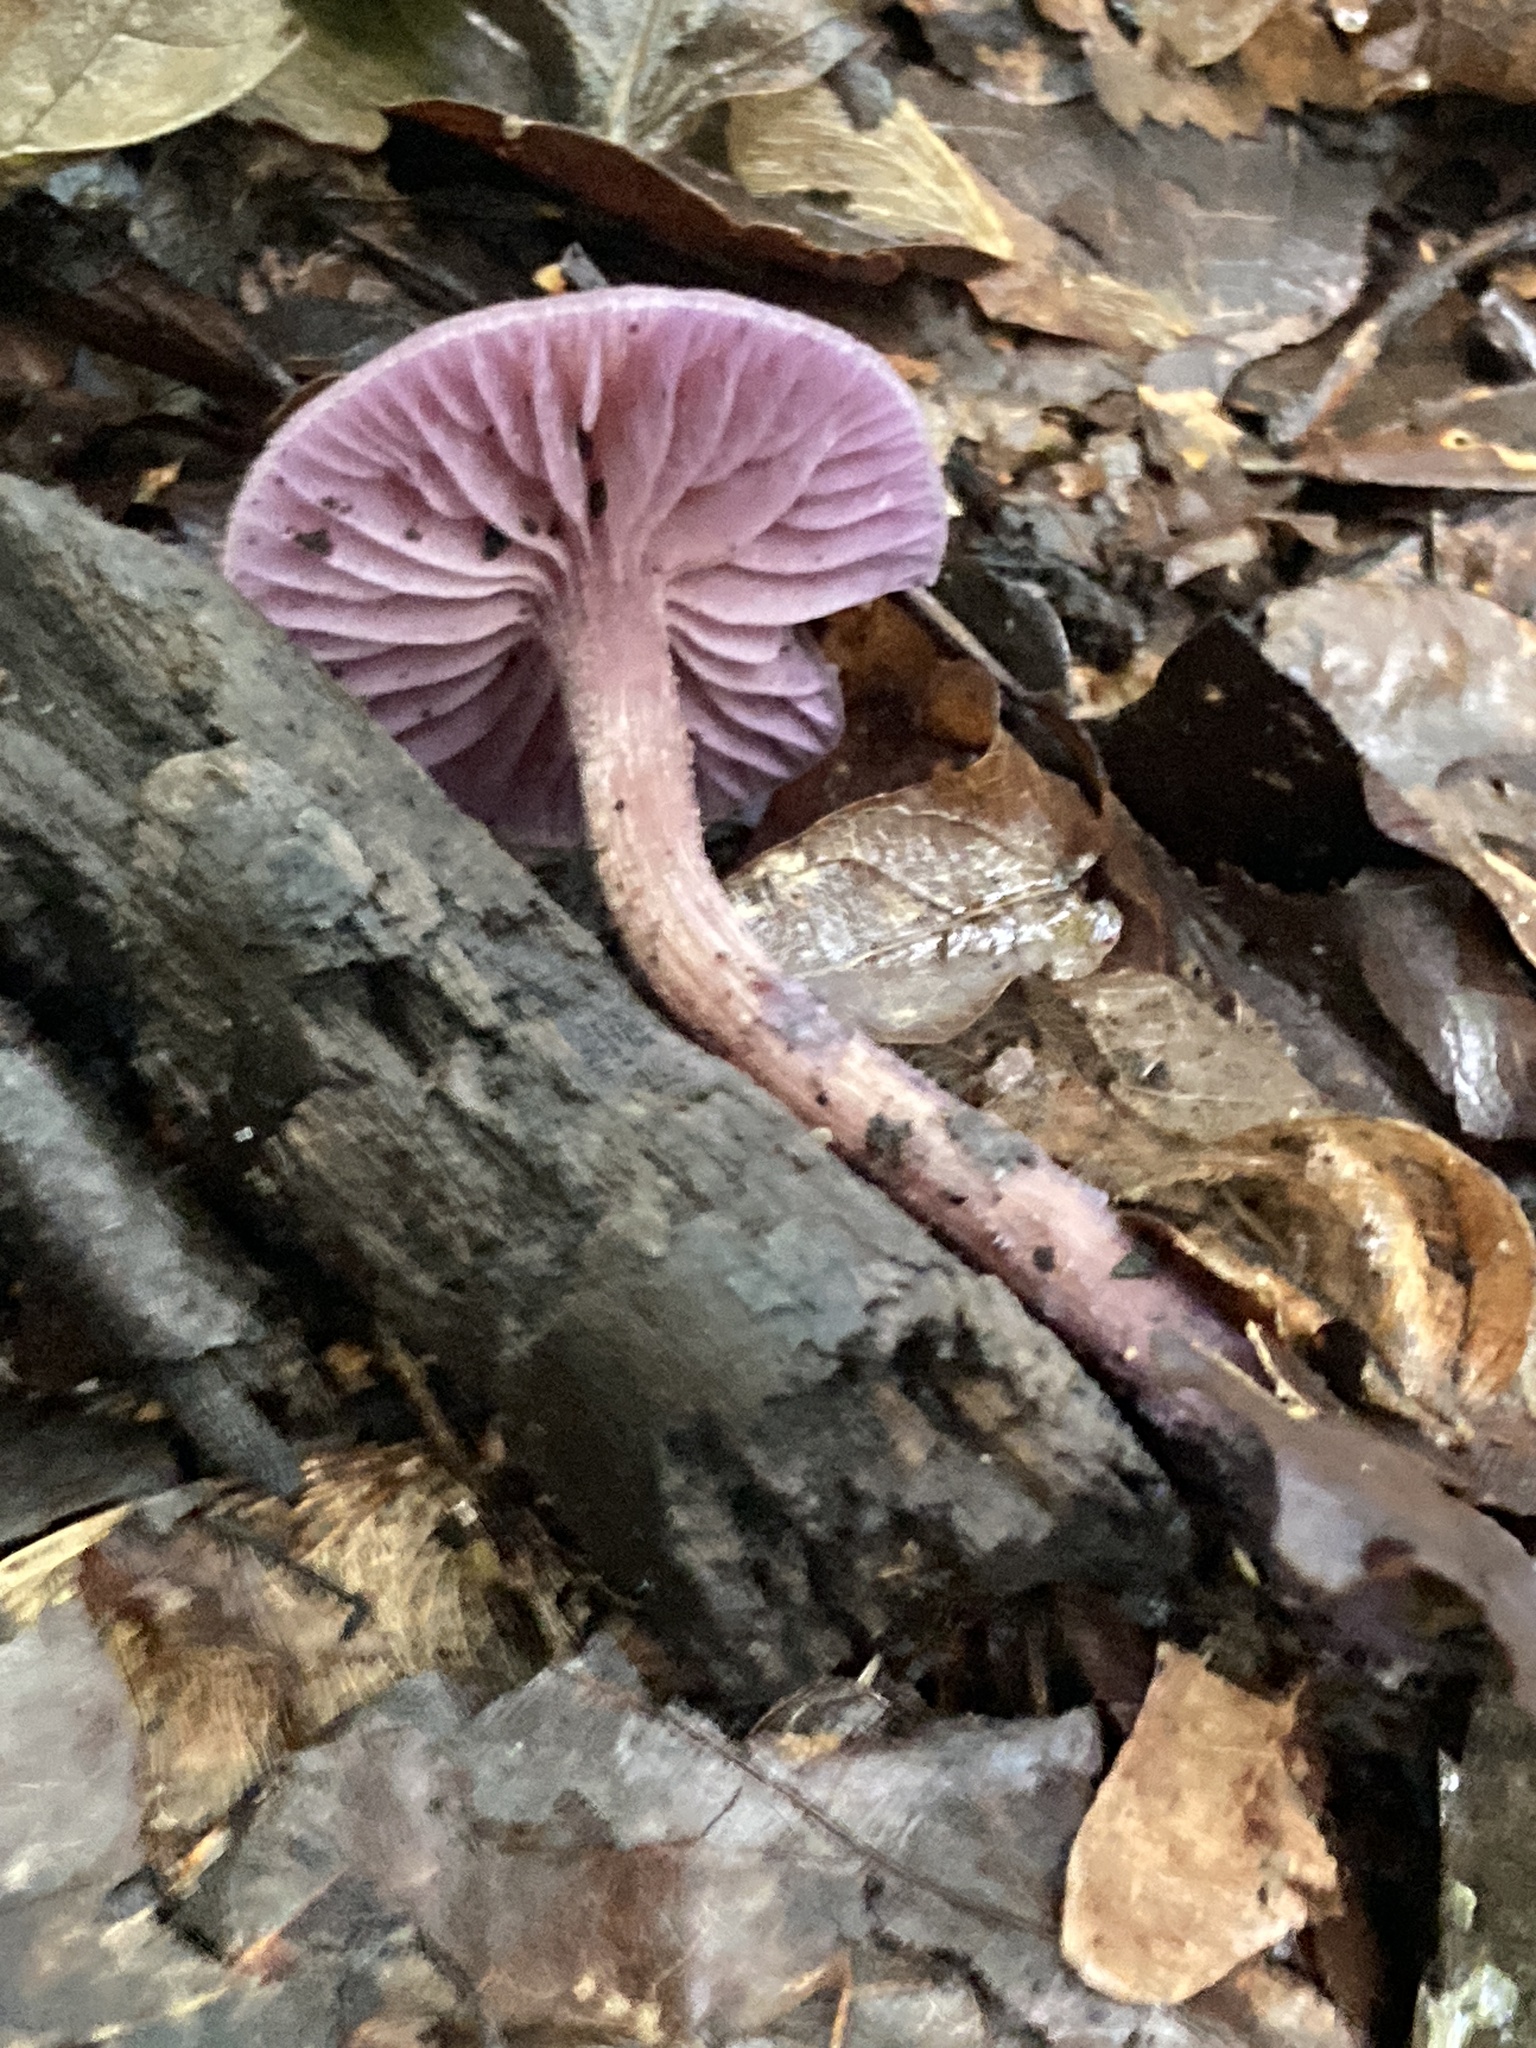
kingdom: Fungi
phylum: Basidiomycota
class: Agaricomycetes
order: Agaricales
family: Hydnangiaceae
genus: Laccaria
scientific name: Laccaria amethystina
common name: Amethyst deceiver
